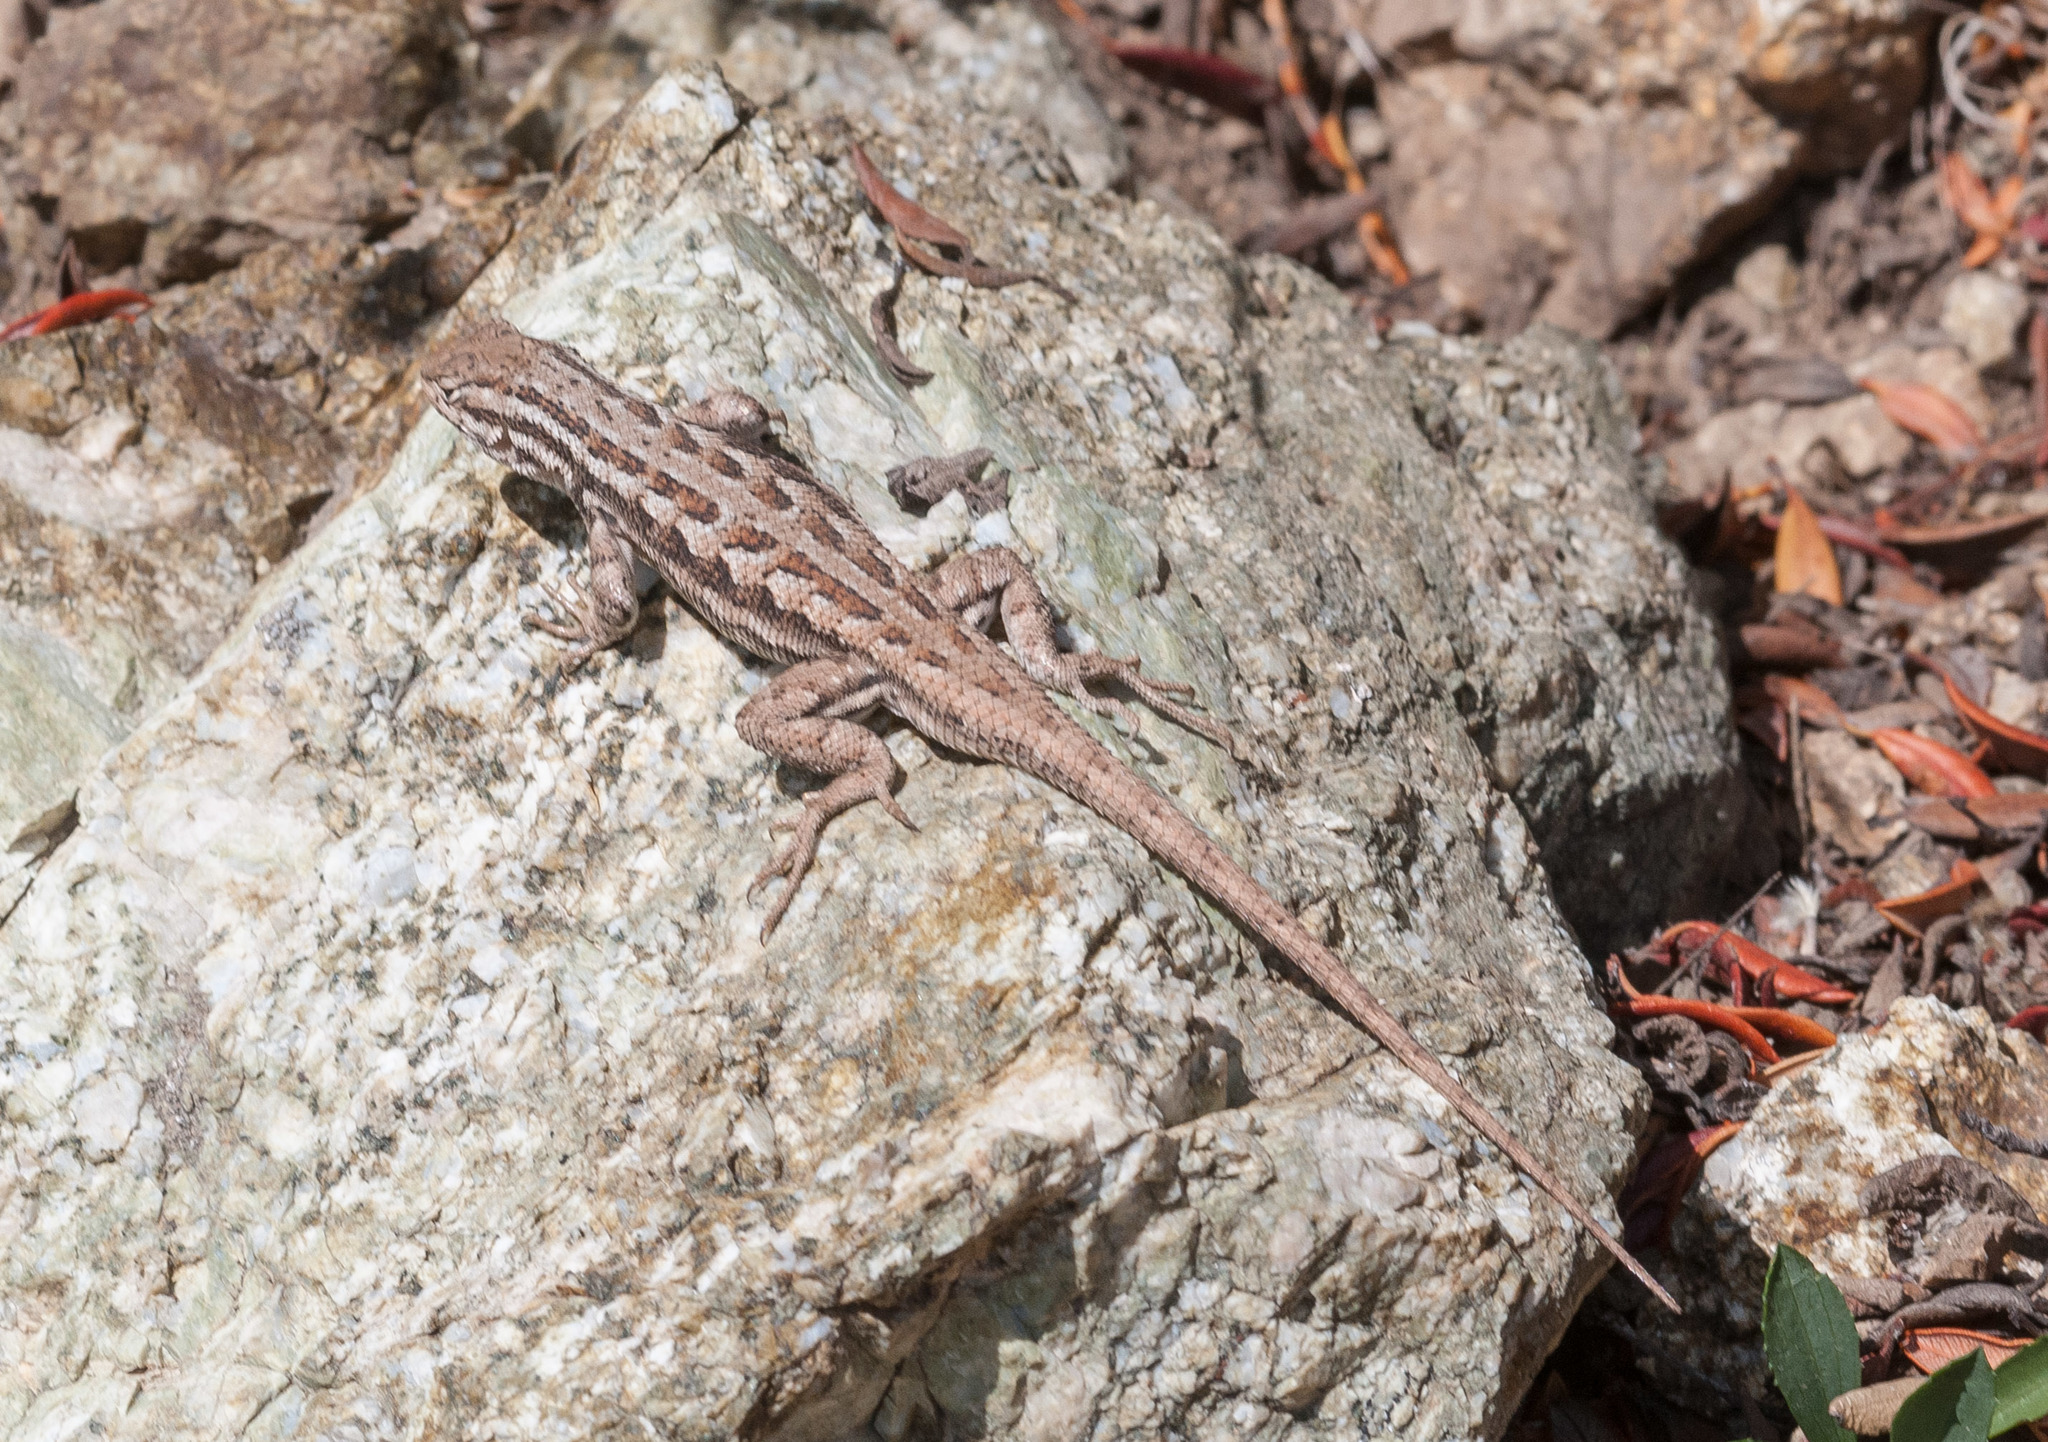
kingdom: Animalia
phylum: Chordata
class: Squamata
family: Phrynosomatidae
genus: Sceloporus
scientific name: Sceloporus graciosus
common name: Sagebrush lizard
